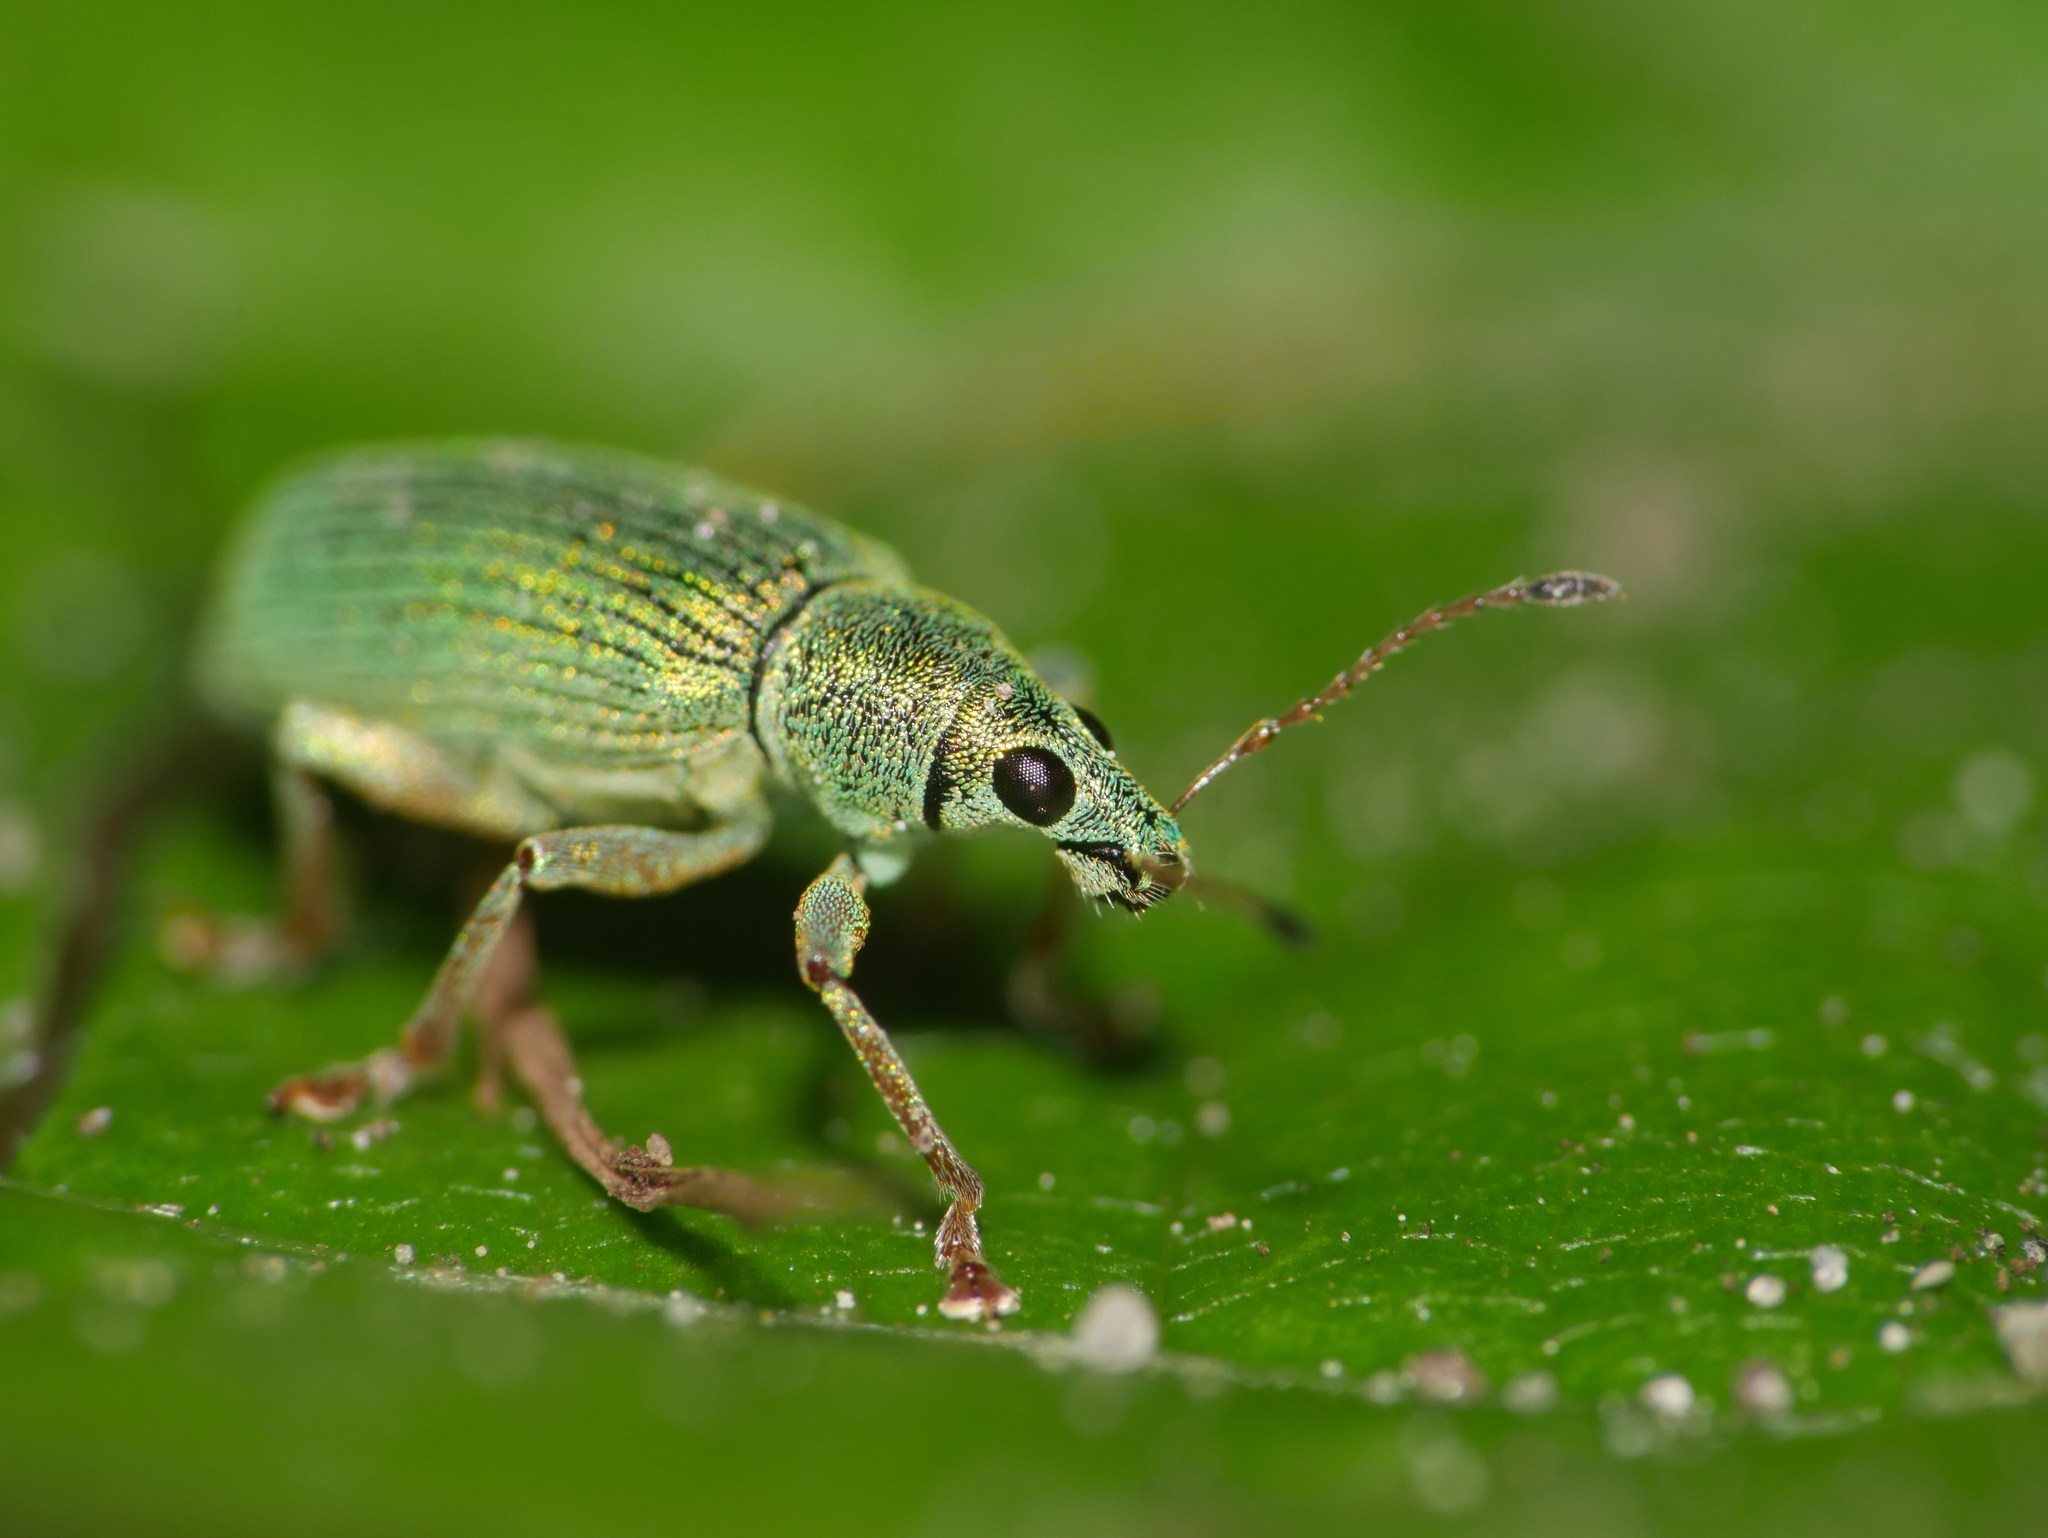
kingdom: Animalia
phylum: Arthropoda
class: Insecta
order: Coleoptera
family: Curculionidae
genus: Polydrusus
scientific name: Polydrusus formosus
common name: Weevil
